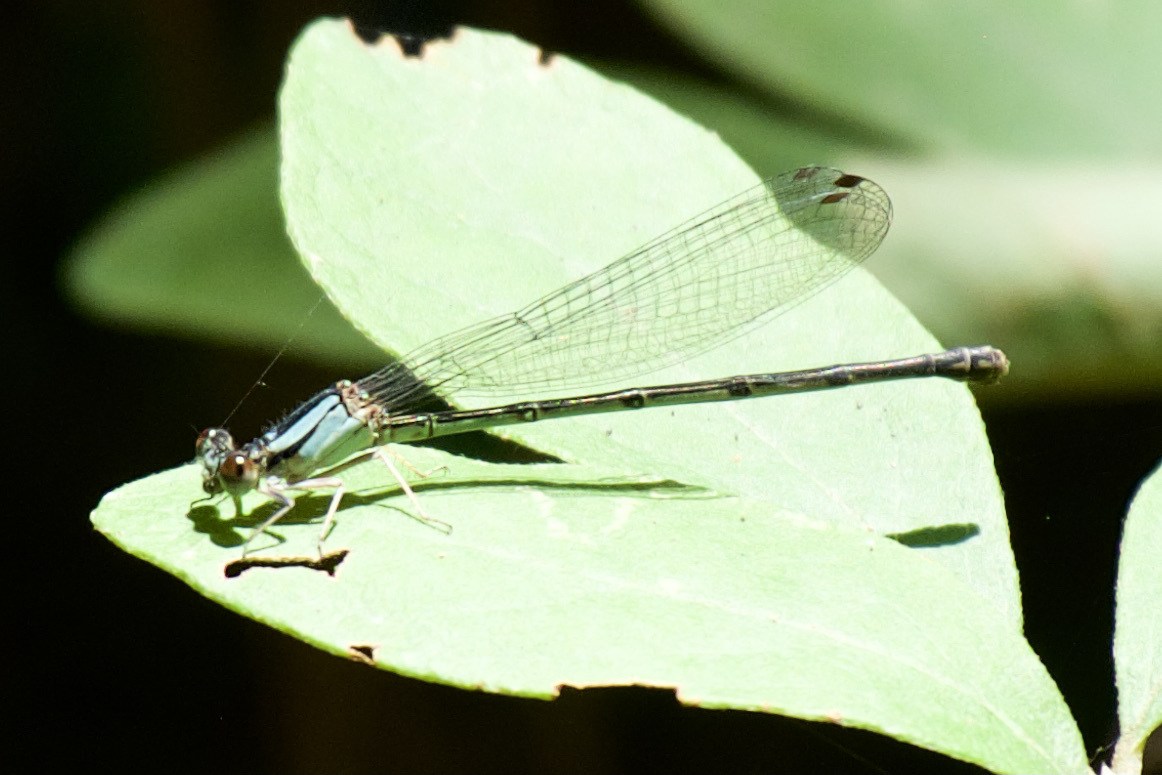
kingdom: Animalia
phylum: Arthropoda
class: Insecta
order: Odonata
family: Coenagrionidae
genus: Argia
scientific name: Argia apicalis
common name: Blue-fronted dancer
